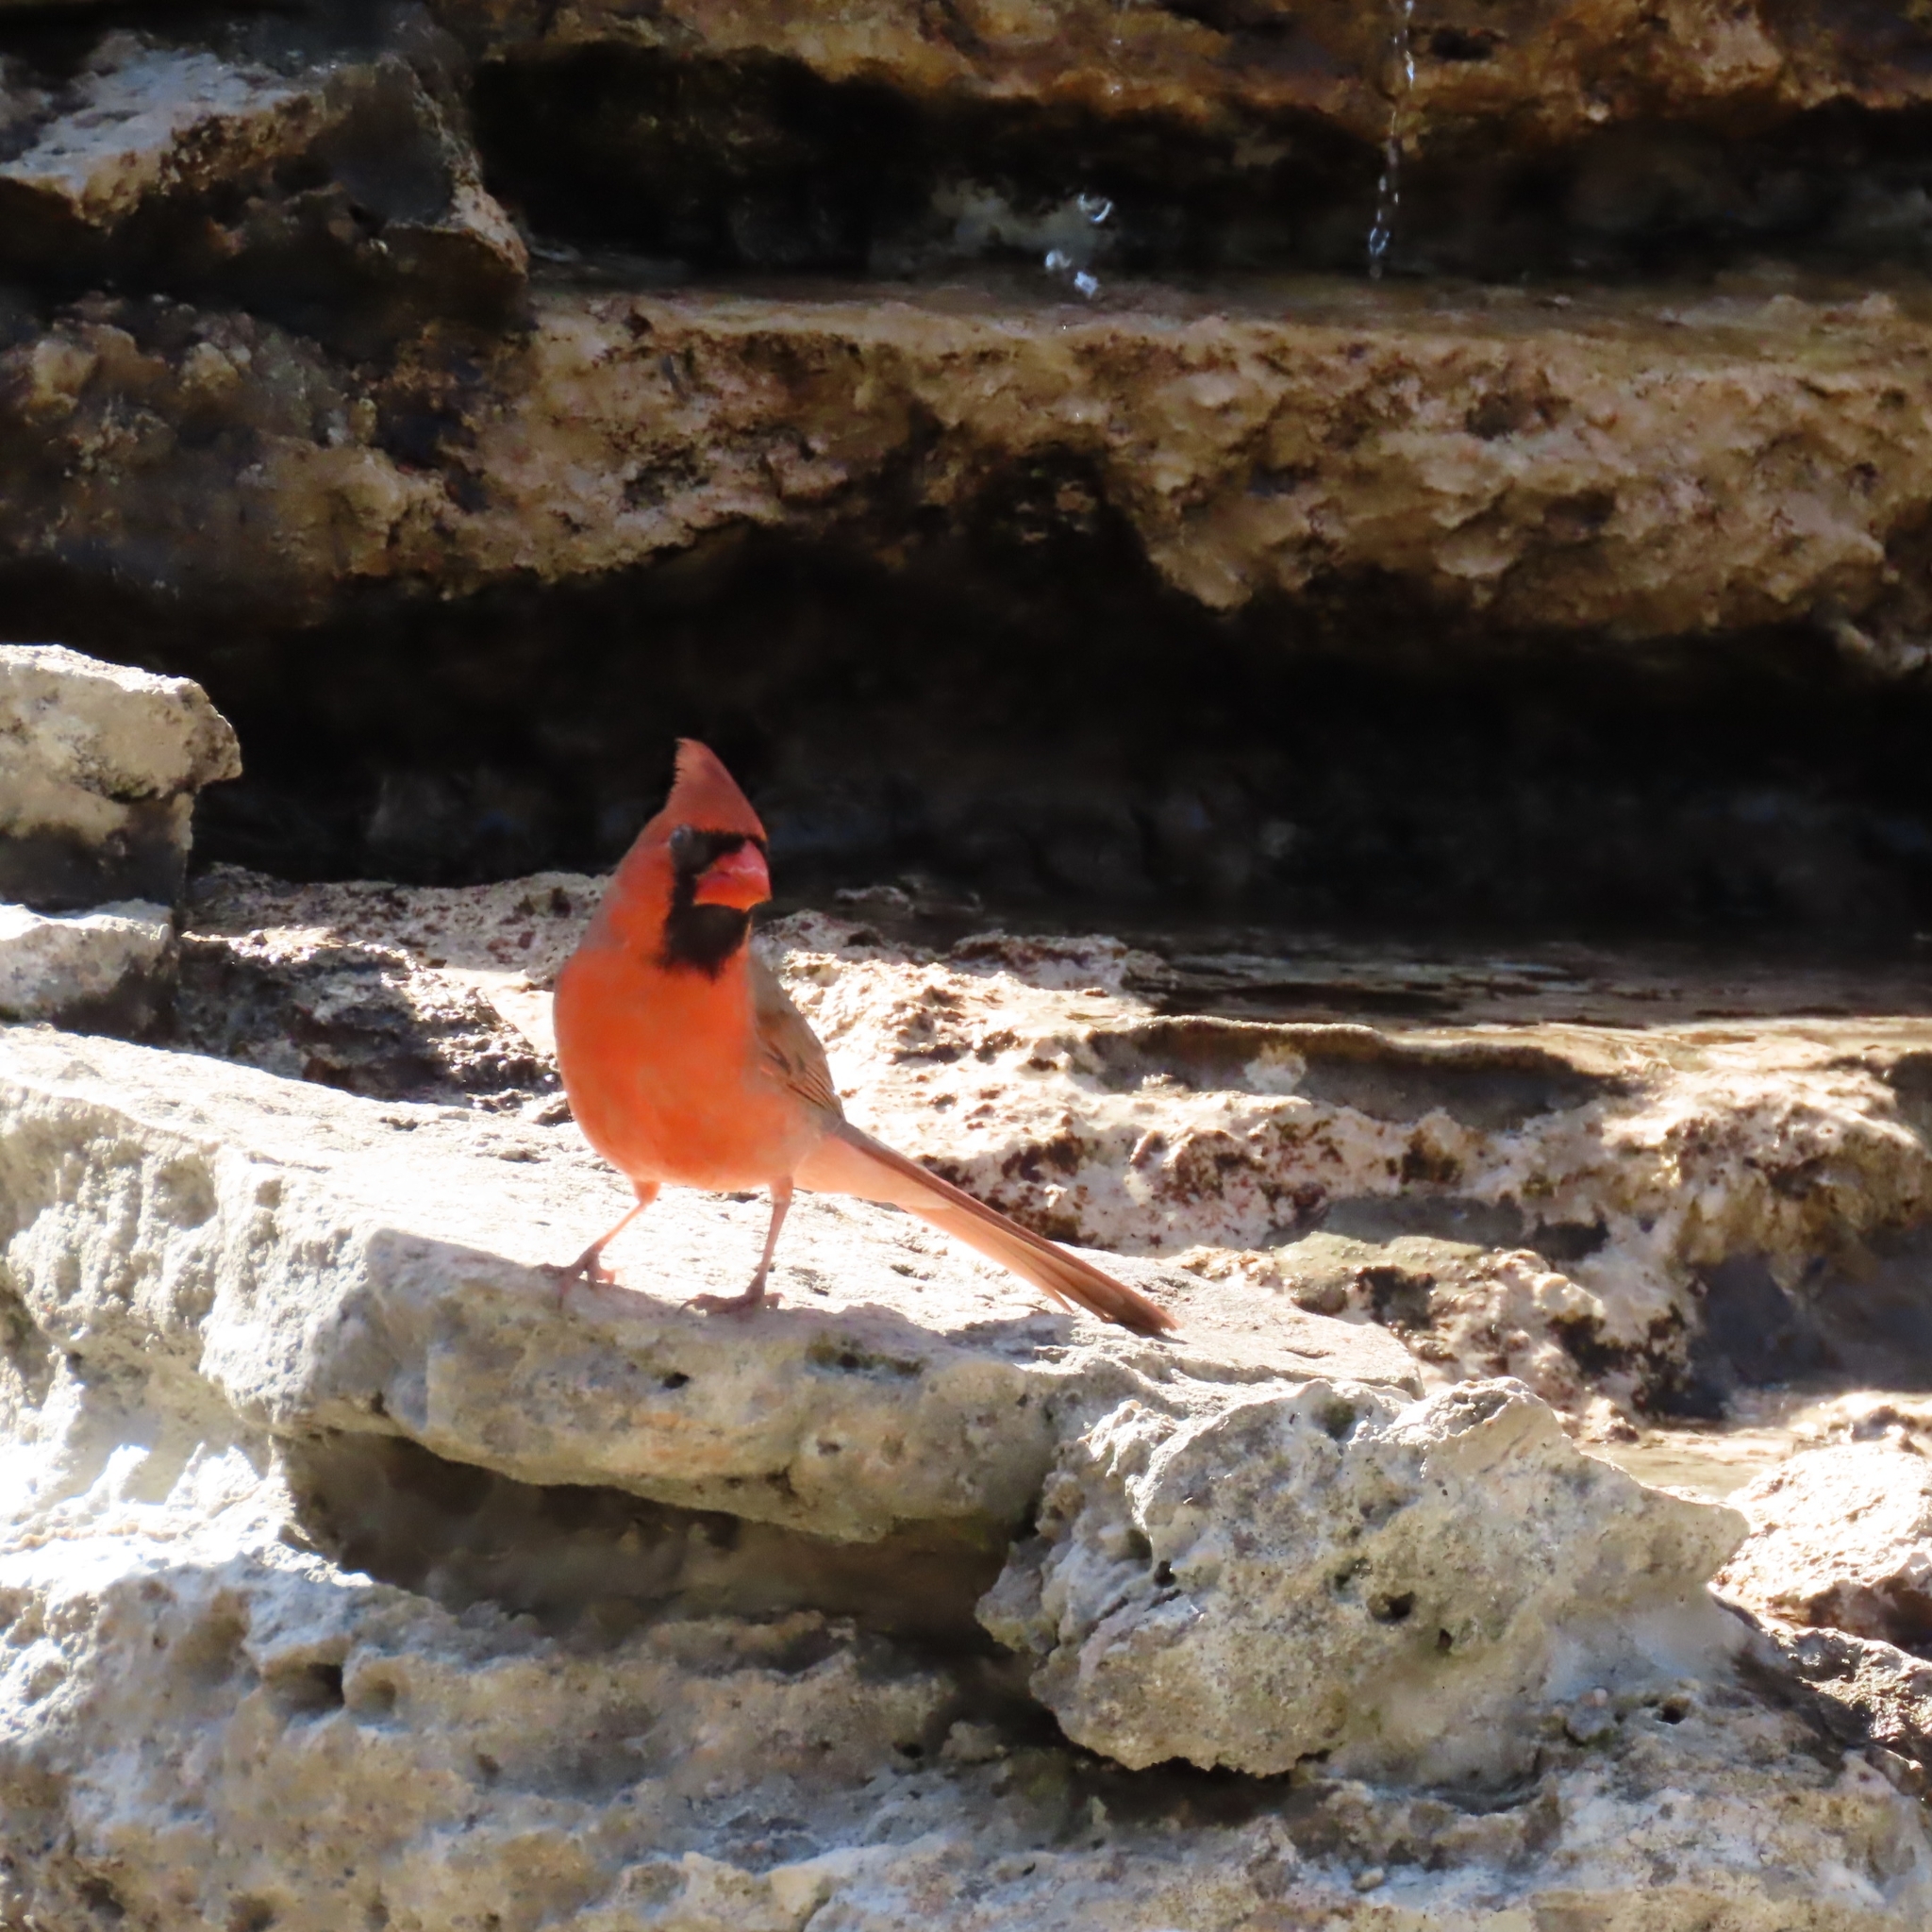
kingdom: Animalia
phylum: Chordata
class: Aves
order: Passeriformes
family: Cardinalidae
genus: Cardinalis
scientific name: Cardinalis cardinalis
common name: Northern cardinal
